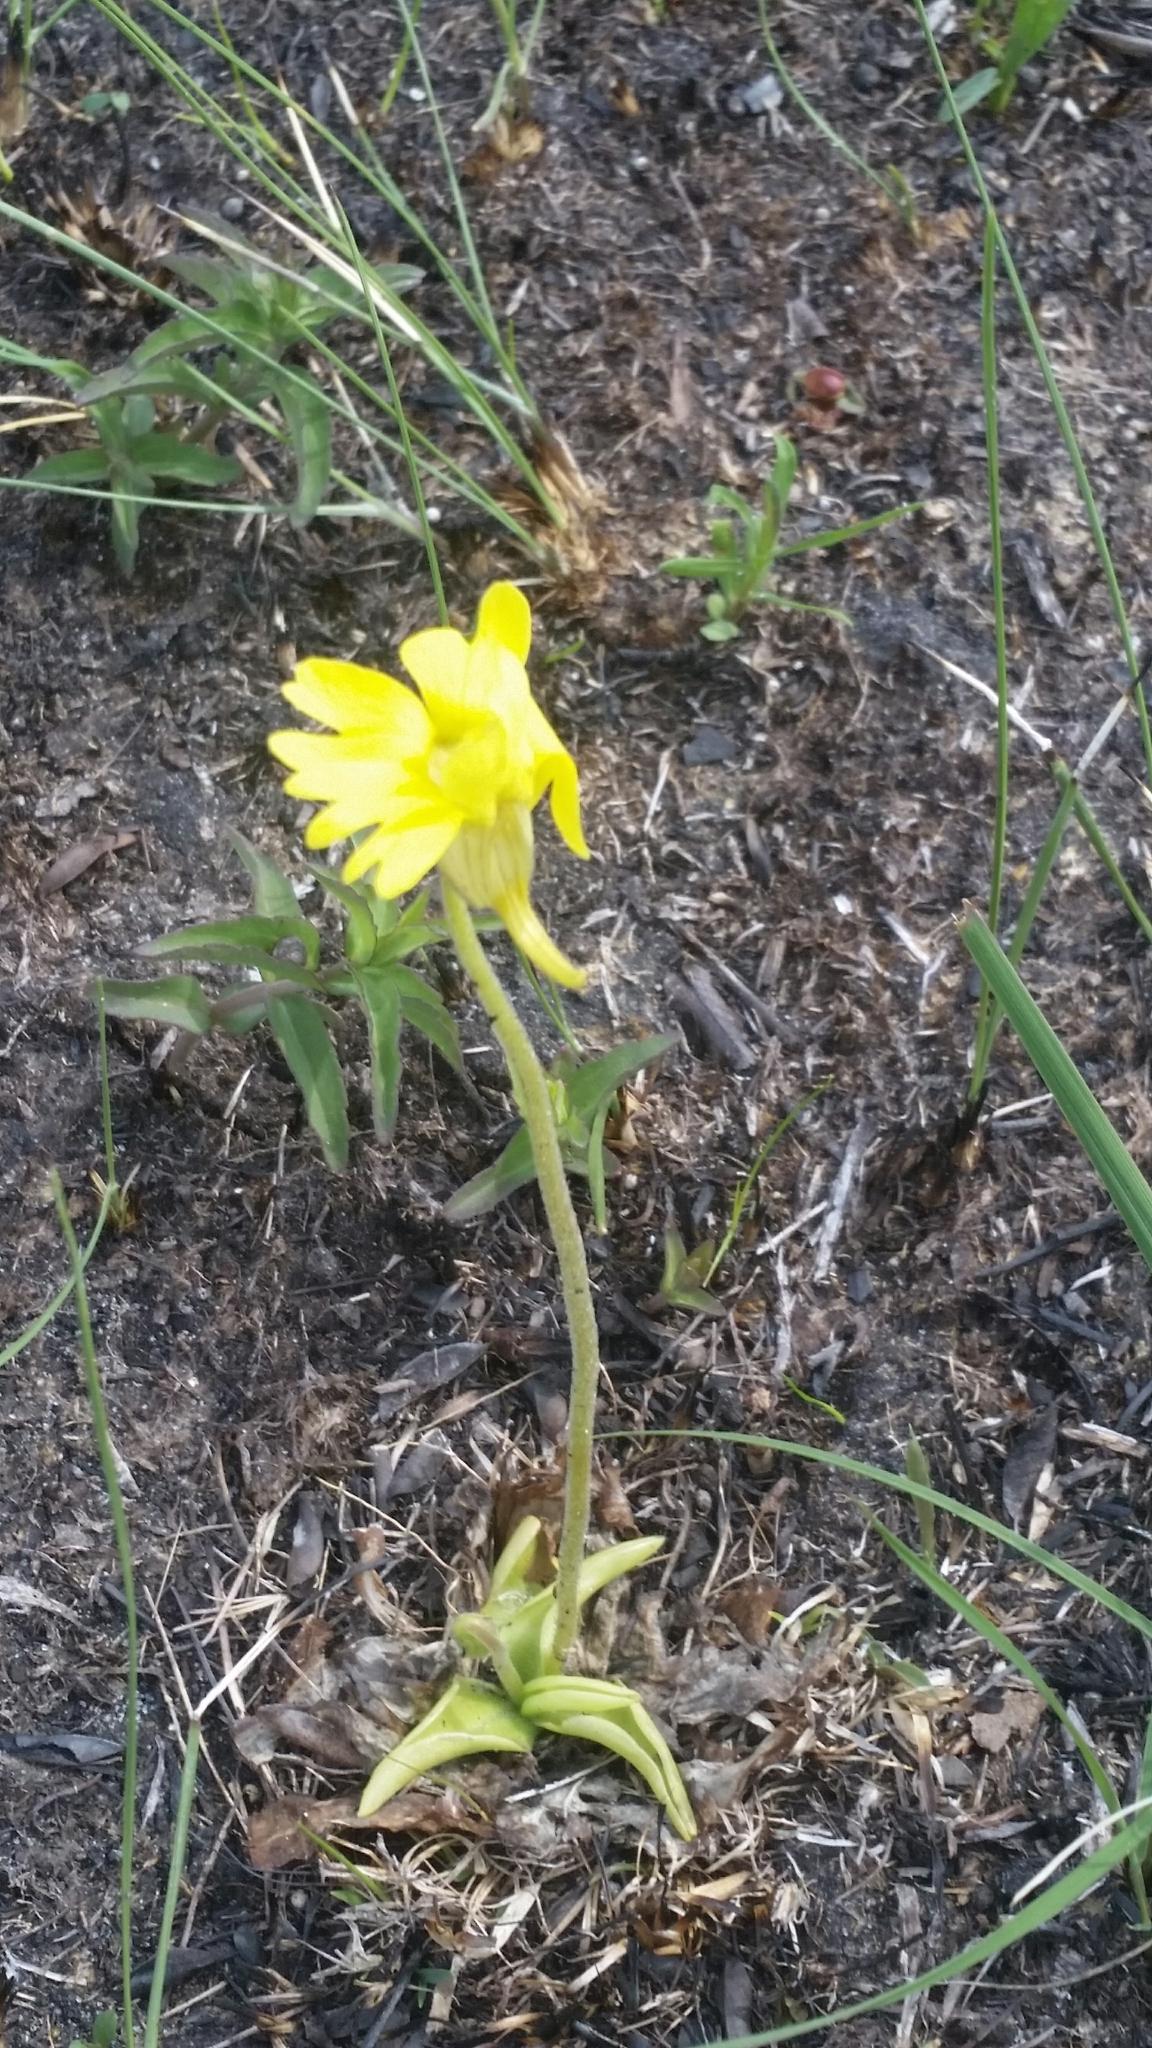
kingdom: Plantae
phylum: Tracheophyta
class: Magnoliopsida
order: Lamiales
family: Lentibulariaceae
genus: Pinguicula
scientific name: Pinguicula lutea
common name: Yellow butterwort
